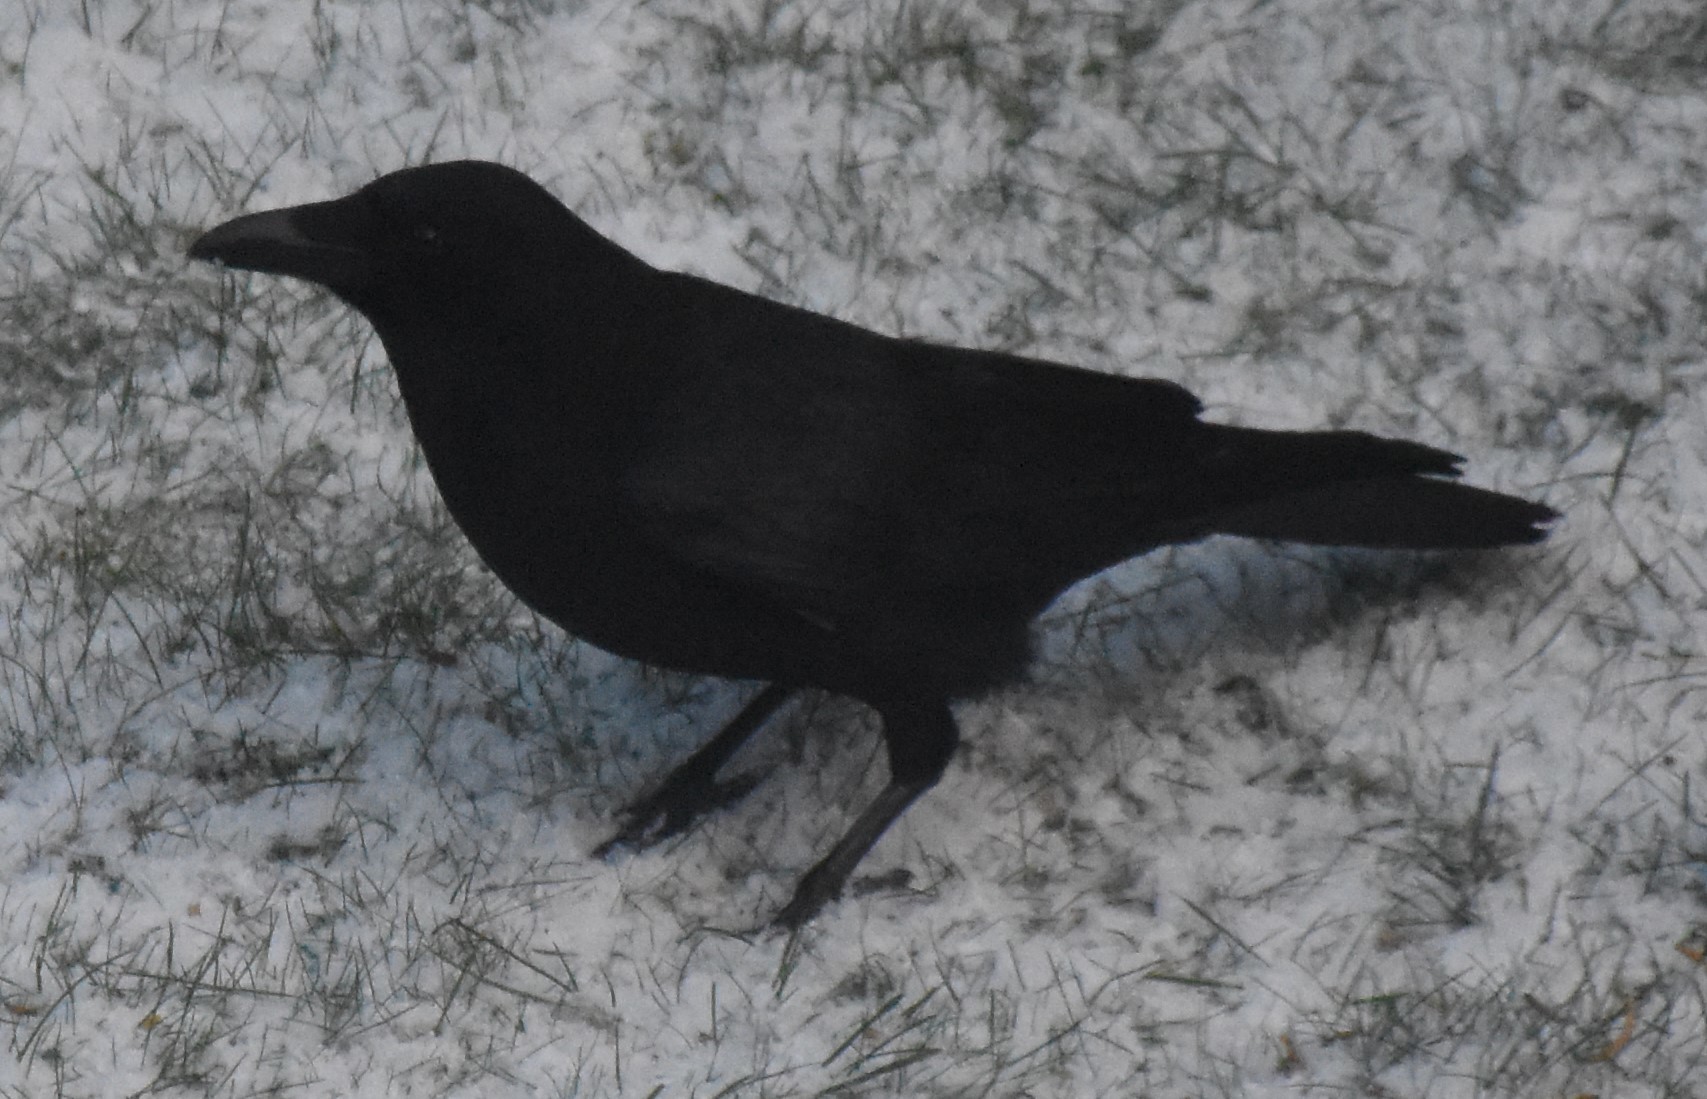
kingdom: Animalia
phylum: Chordata
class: Aves
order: Passeriformes
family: Corvidae
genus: Corvus
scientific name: Corvus corone
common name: Carrion crow
